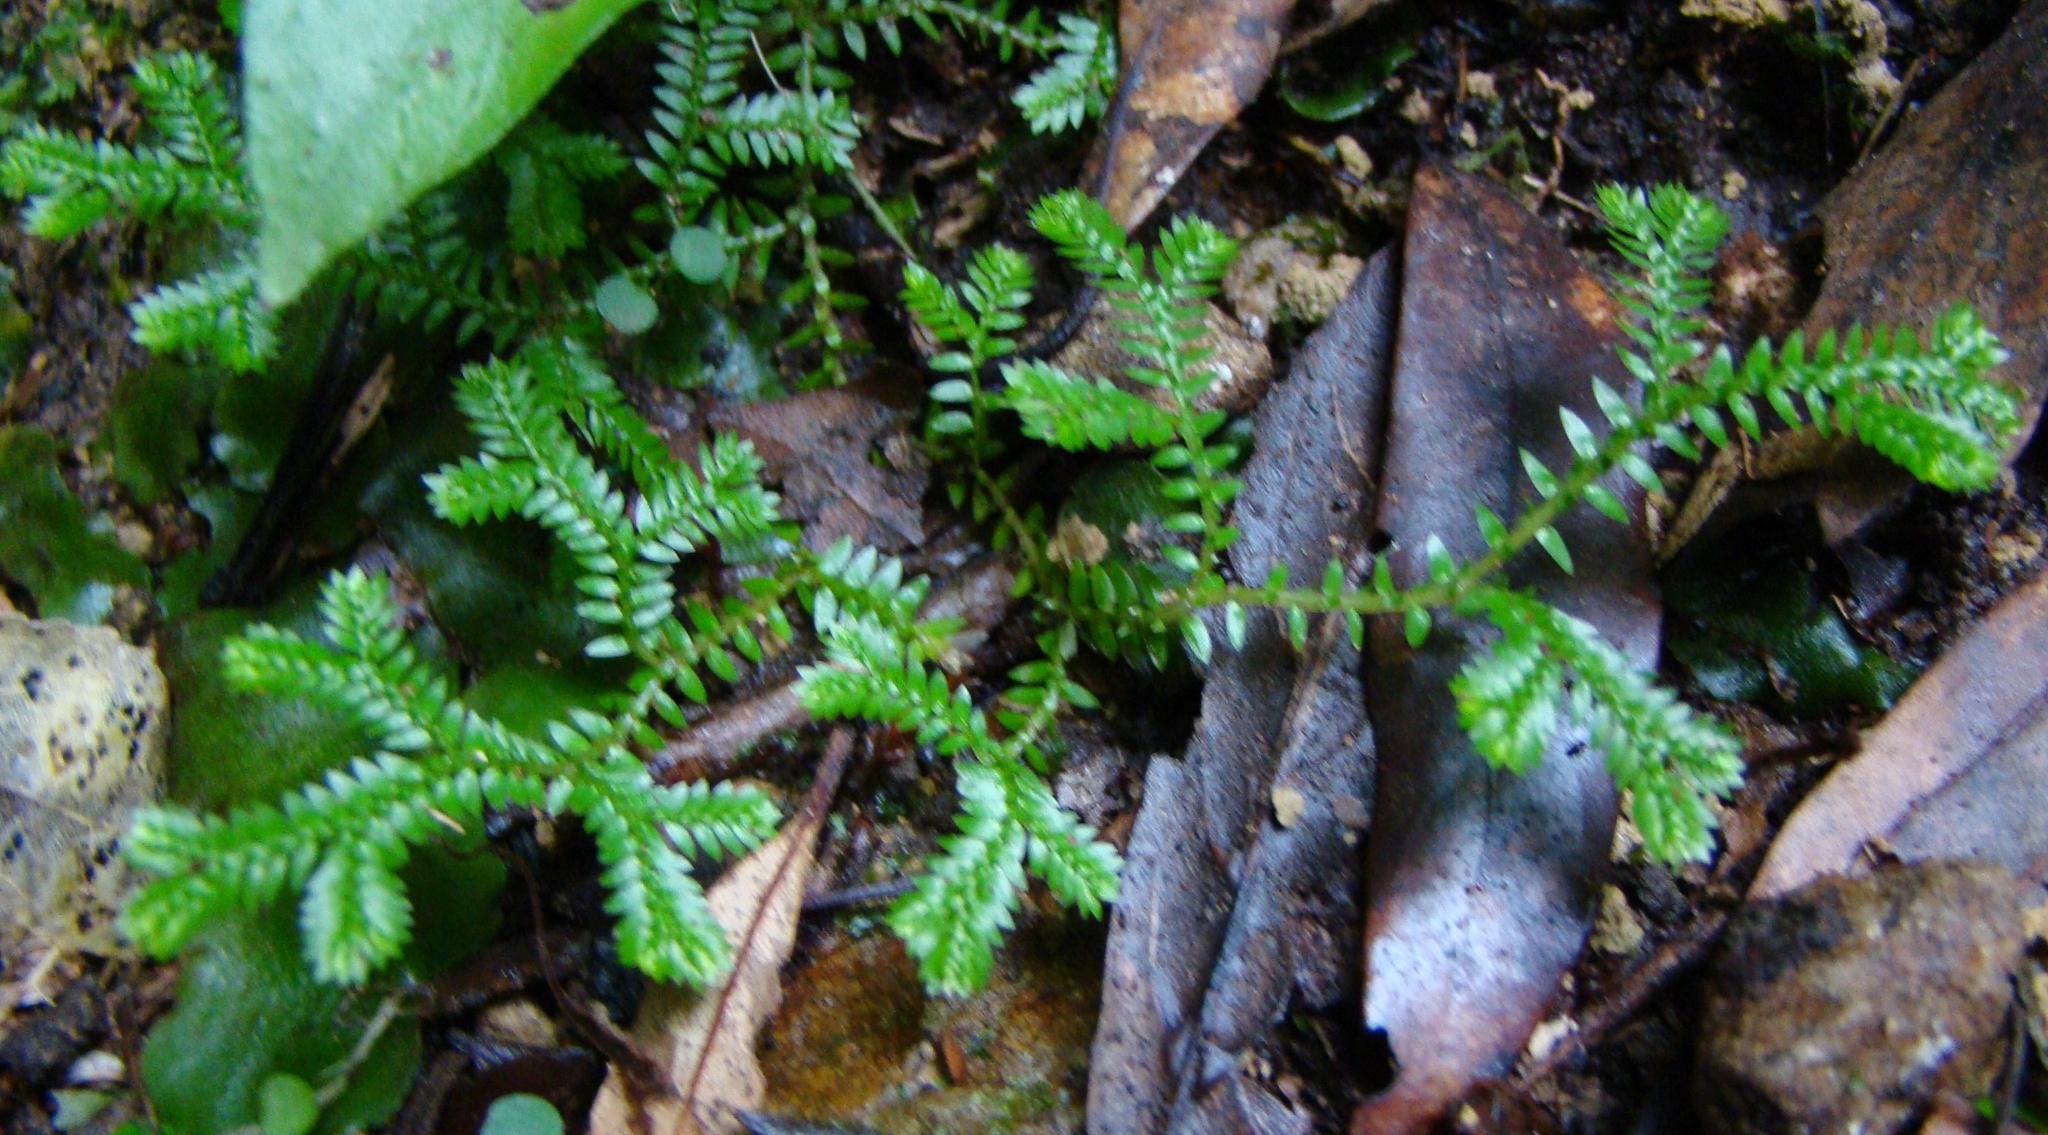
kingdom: Plantae
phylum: Tracheophyta
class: Lycopodiopsida
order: Selaginellales
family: Selaginellaceae
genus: Selaginella
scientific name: Selaginella kraussiana
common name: Krauss' spikemoss
